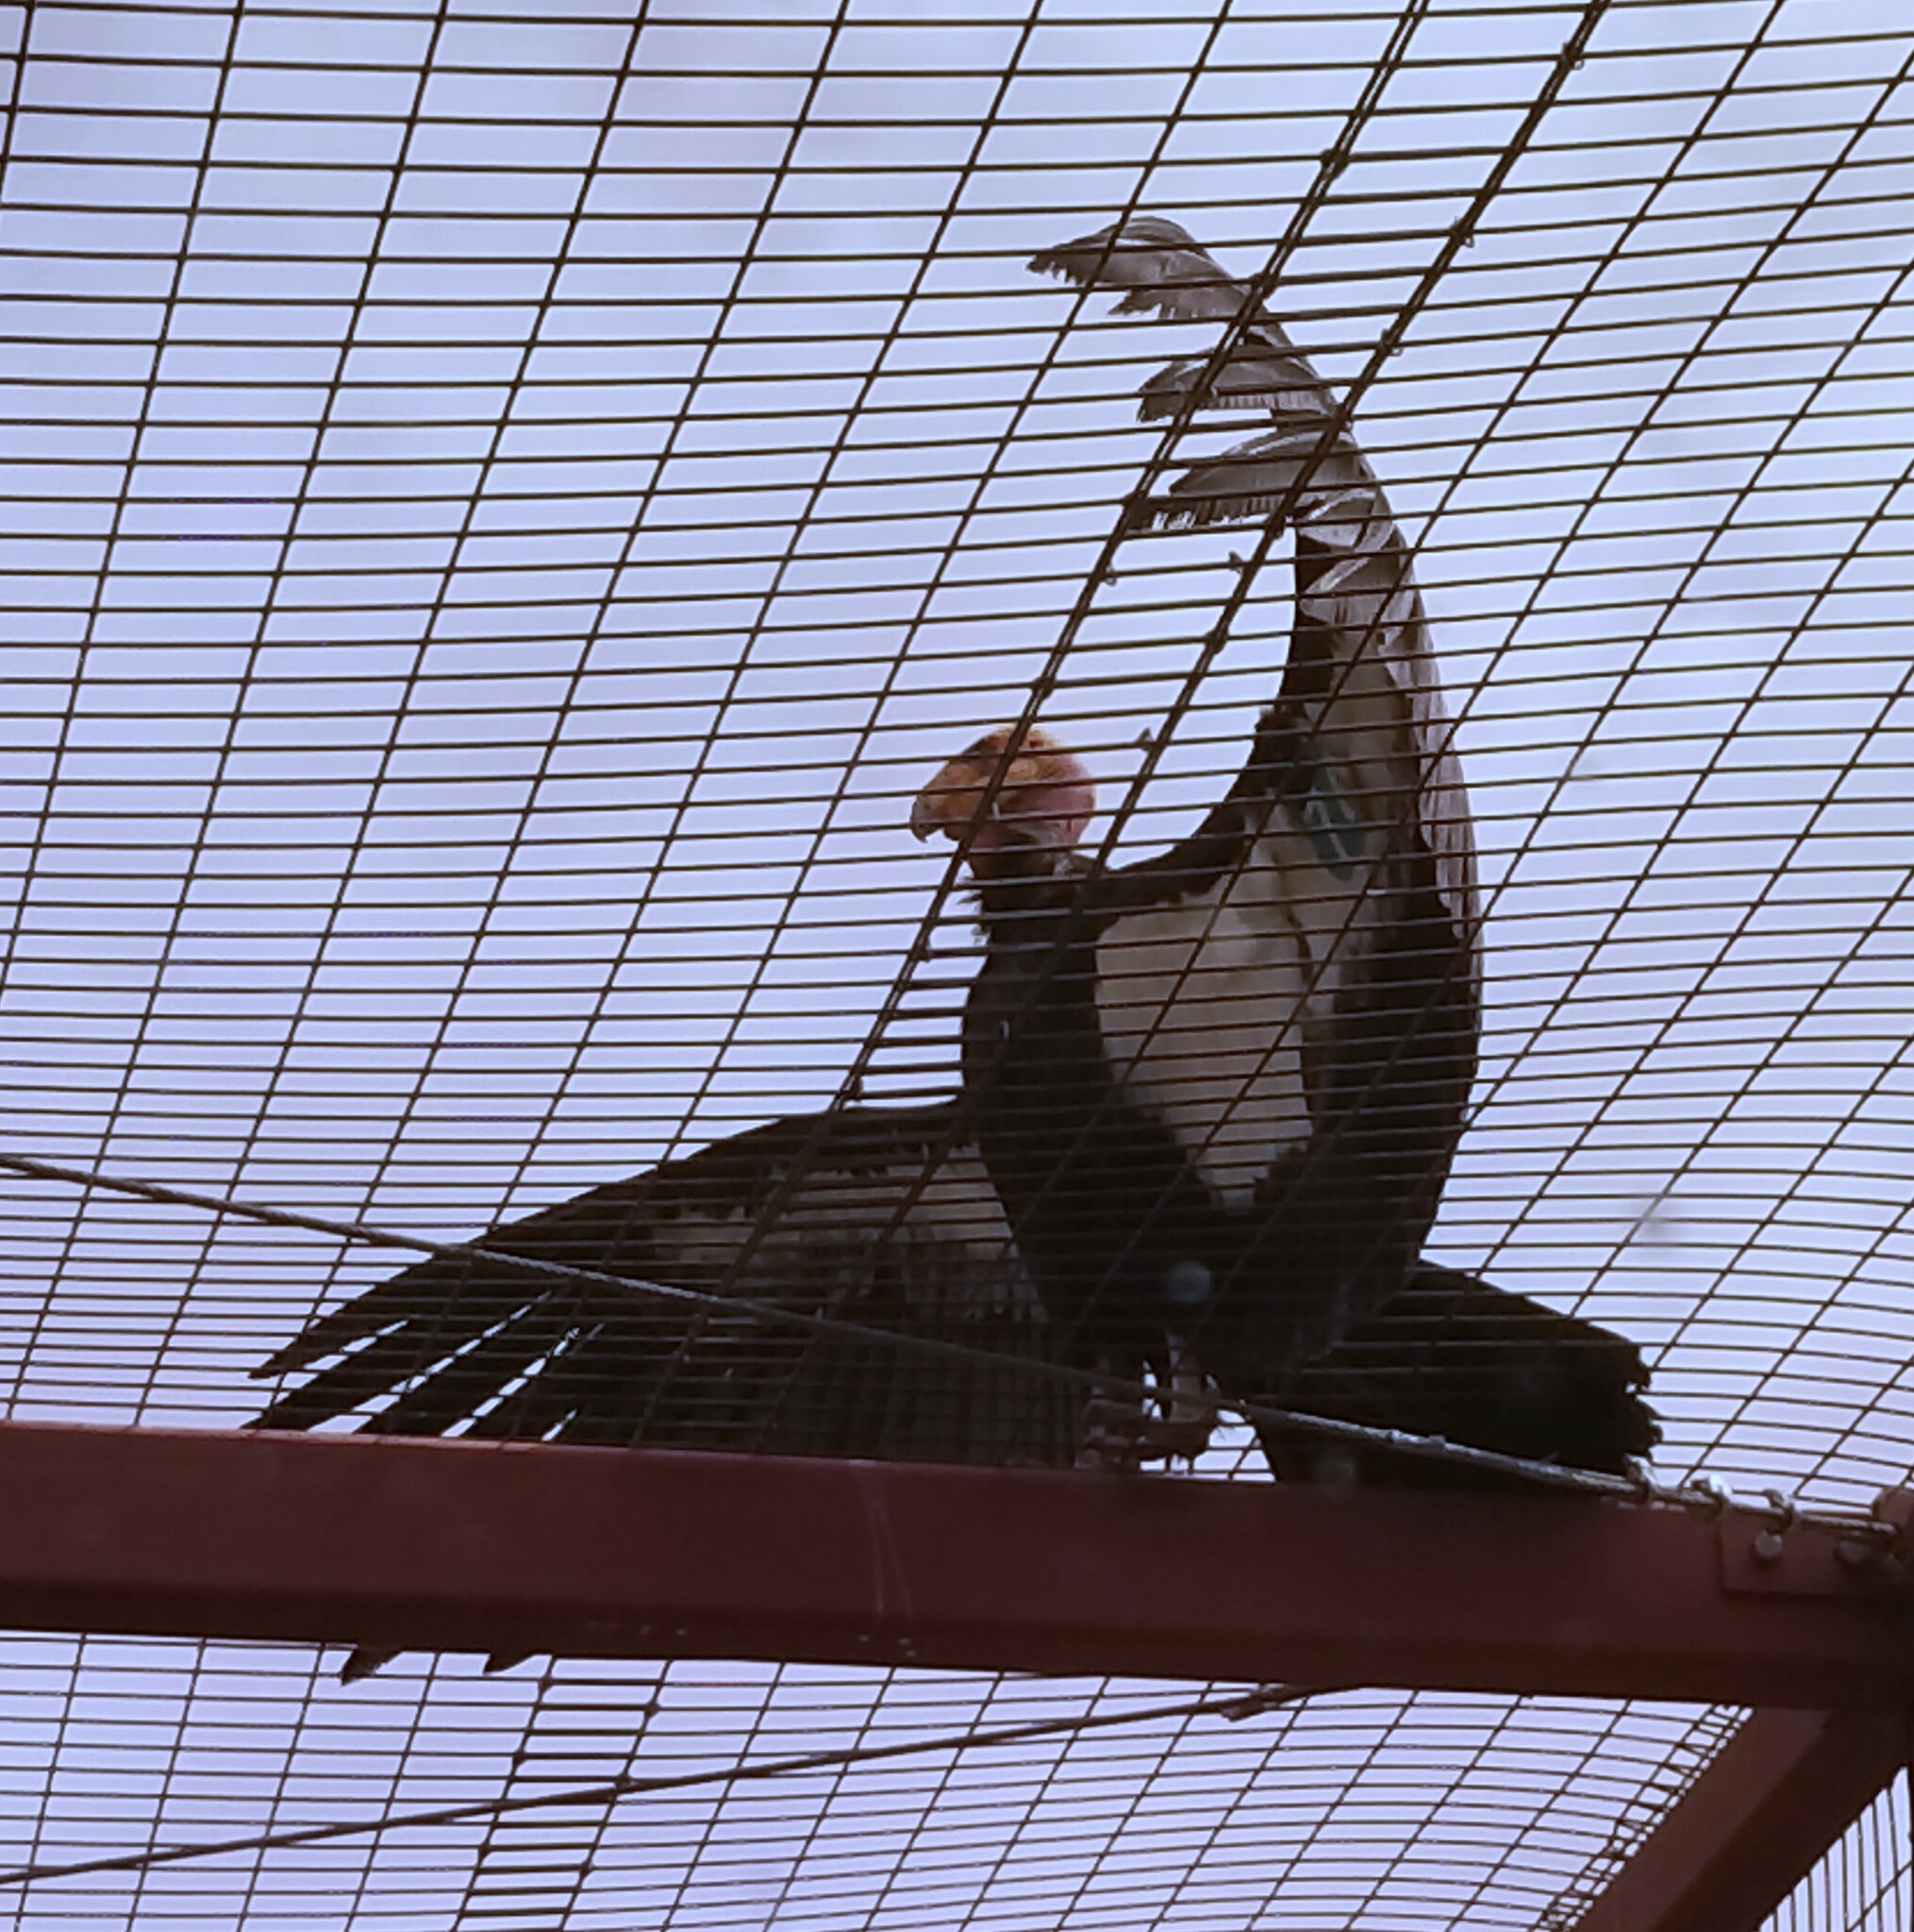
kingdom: Animalia
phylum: Chordata
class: Aves
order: Accipitriformes
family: Cathartidae
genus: Gymnogyps
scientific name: Gymnogyps californianus
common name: California condor
